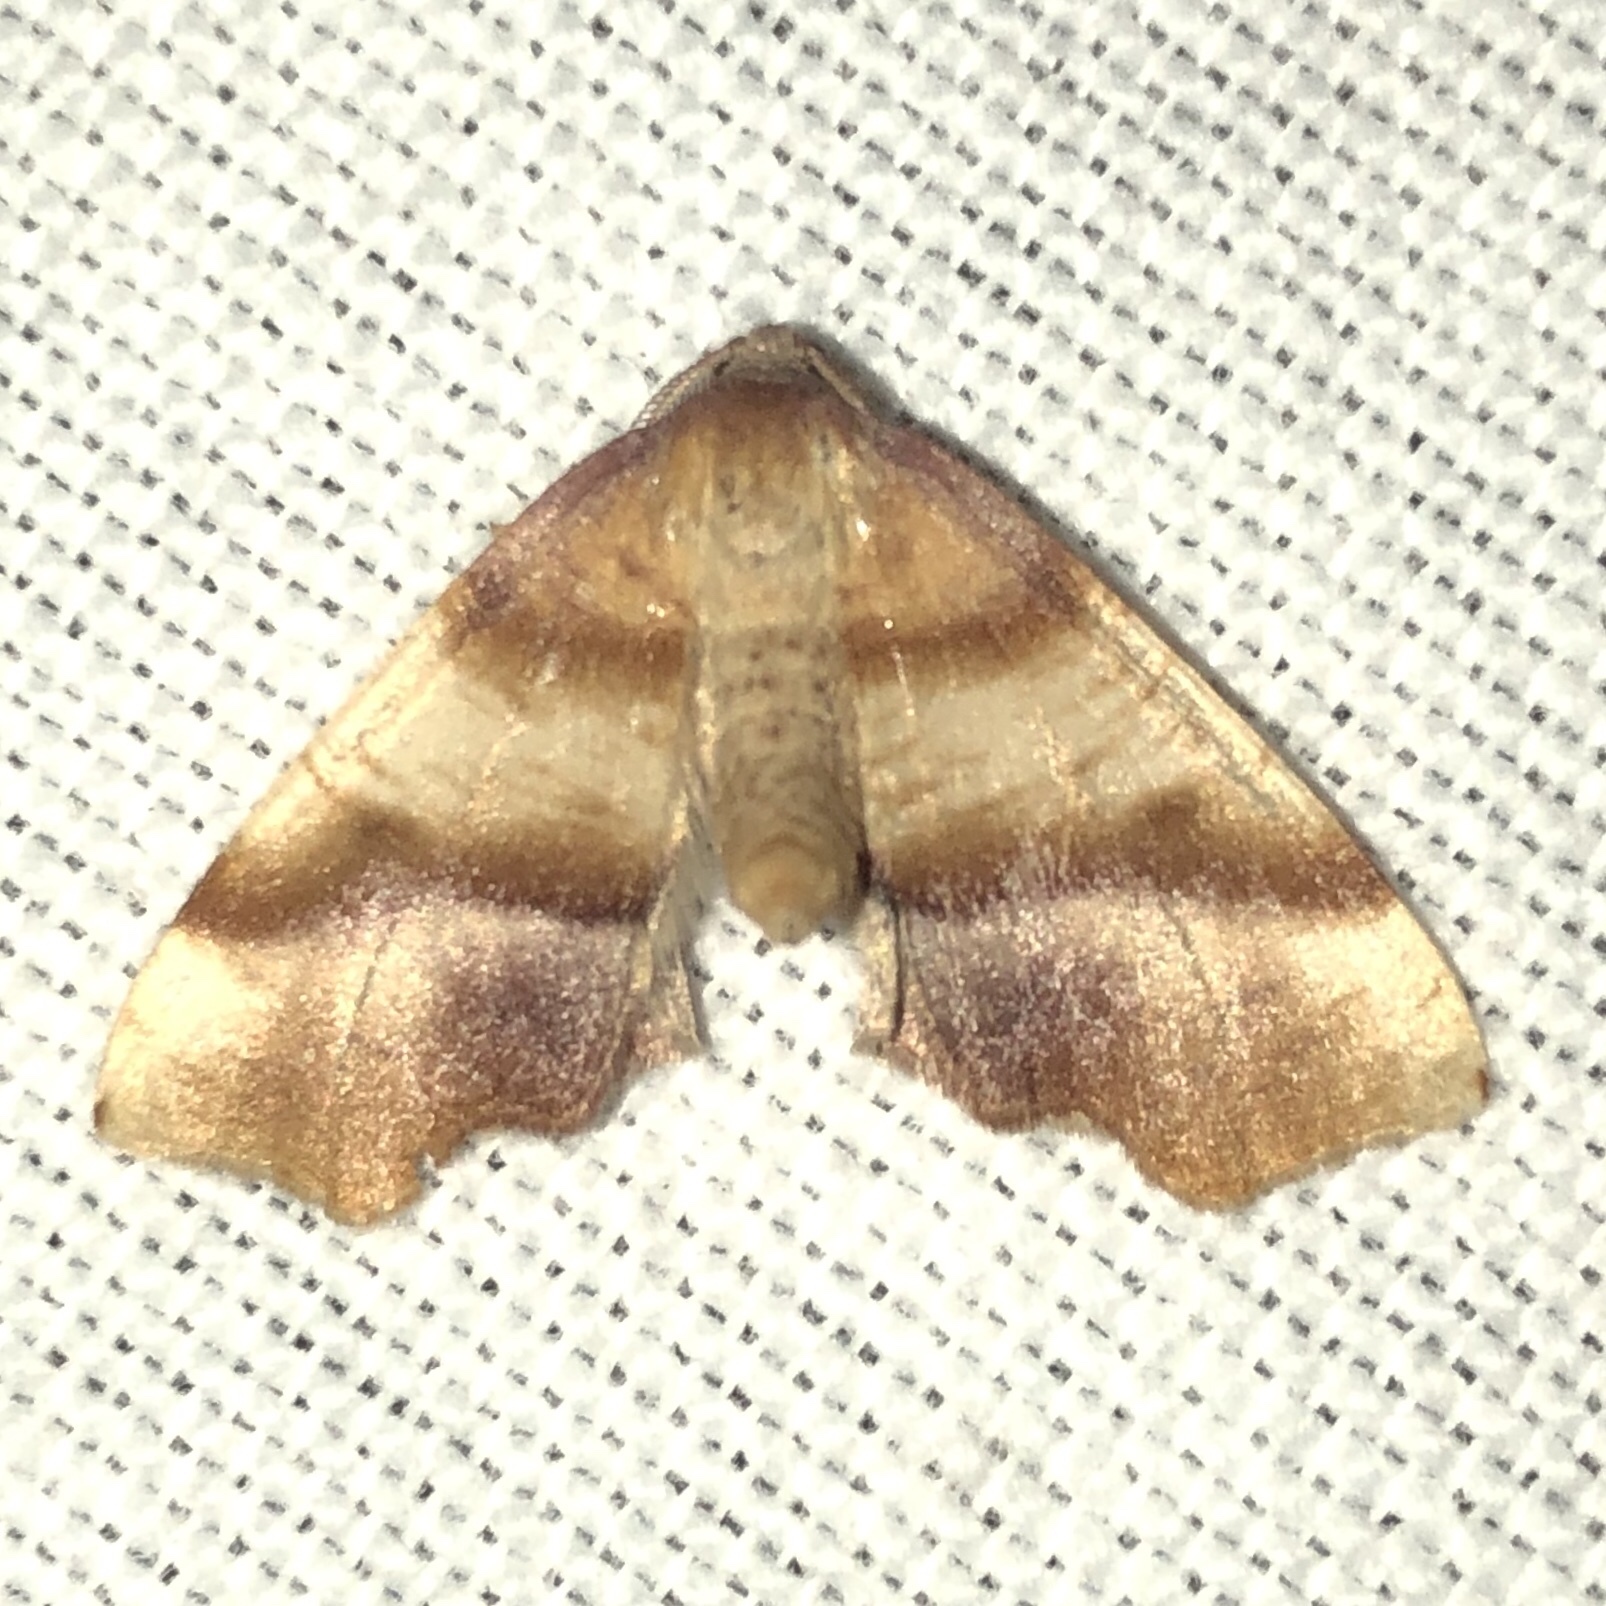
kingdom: Animalia
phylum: Arthropoda
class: Insecta
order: Lepidoptera
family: Geometridae
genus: Plagodis
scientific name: Plagodis phlogosaria
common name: Straight-lined plagodis
